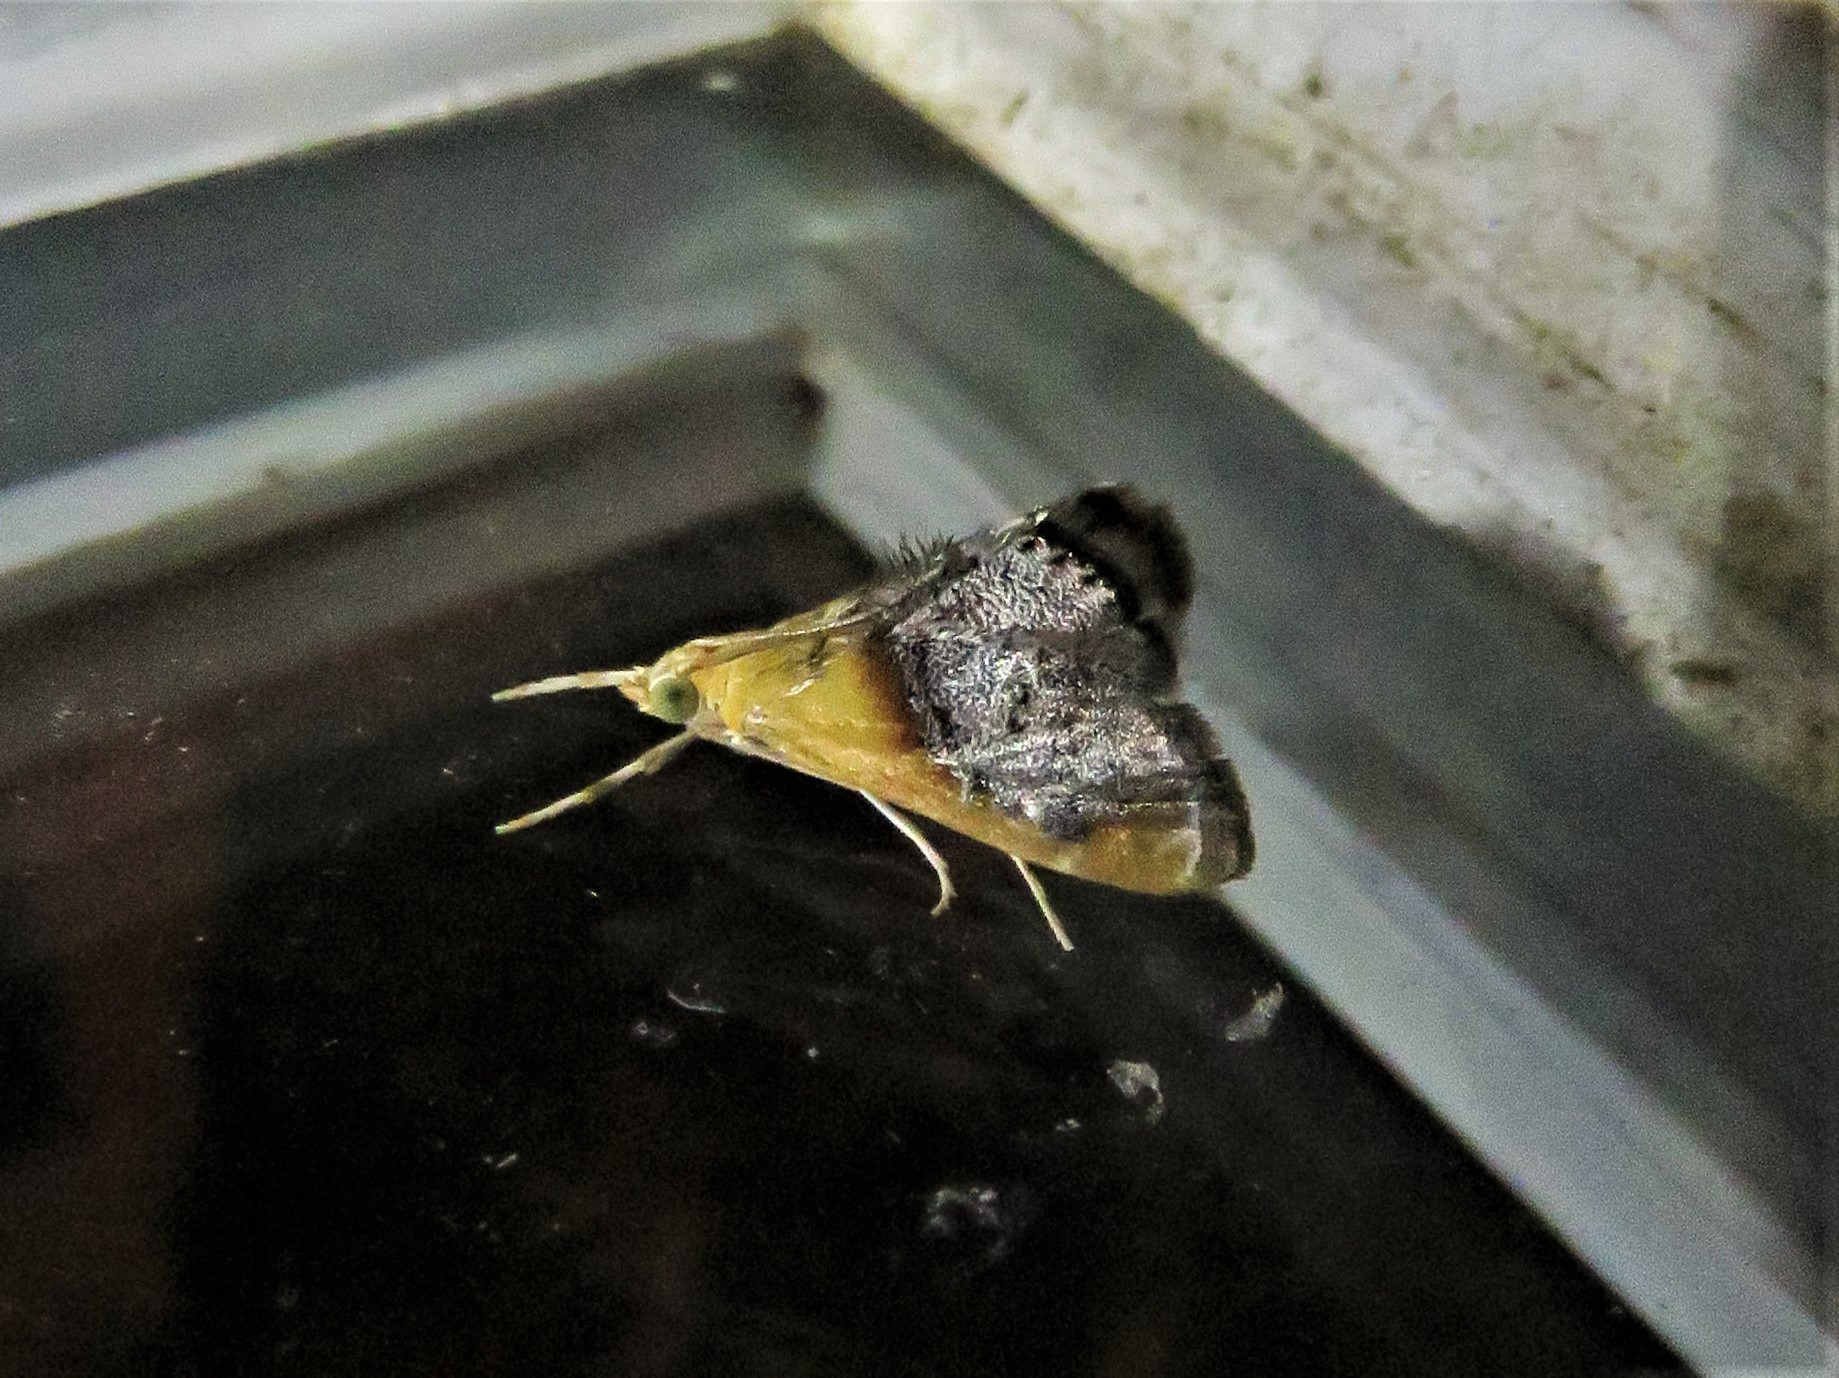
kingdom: Animalia
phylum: Arthropoda
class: Insecta
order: Lepidoptera
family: Crambidae
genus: Chalcoela
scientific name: Chalcoela iphitalis
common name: Sooty-winged chalcoela moth
